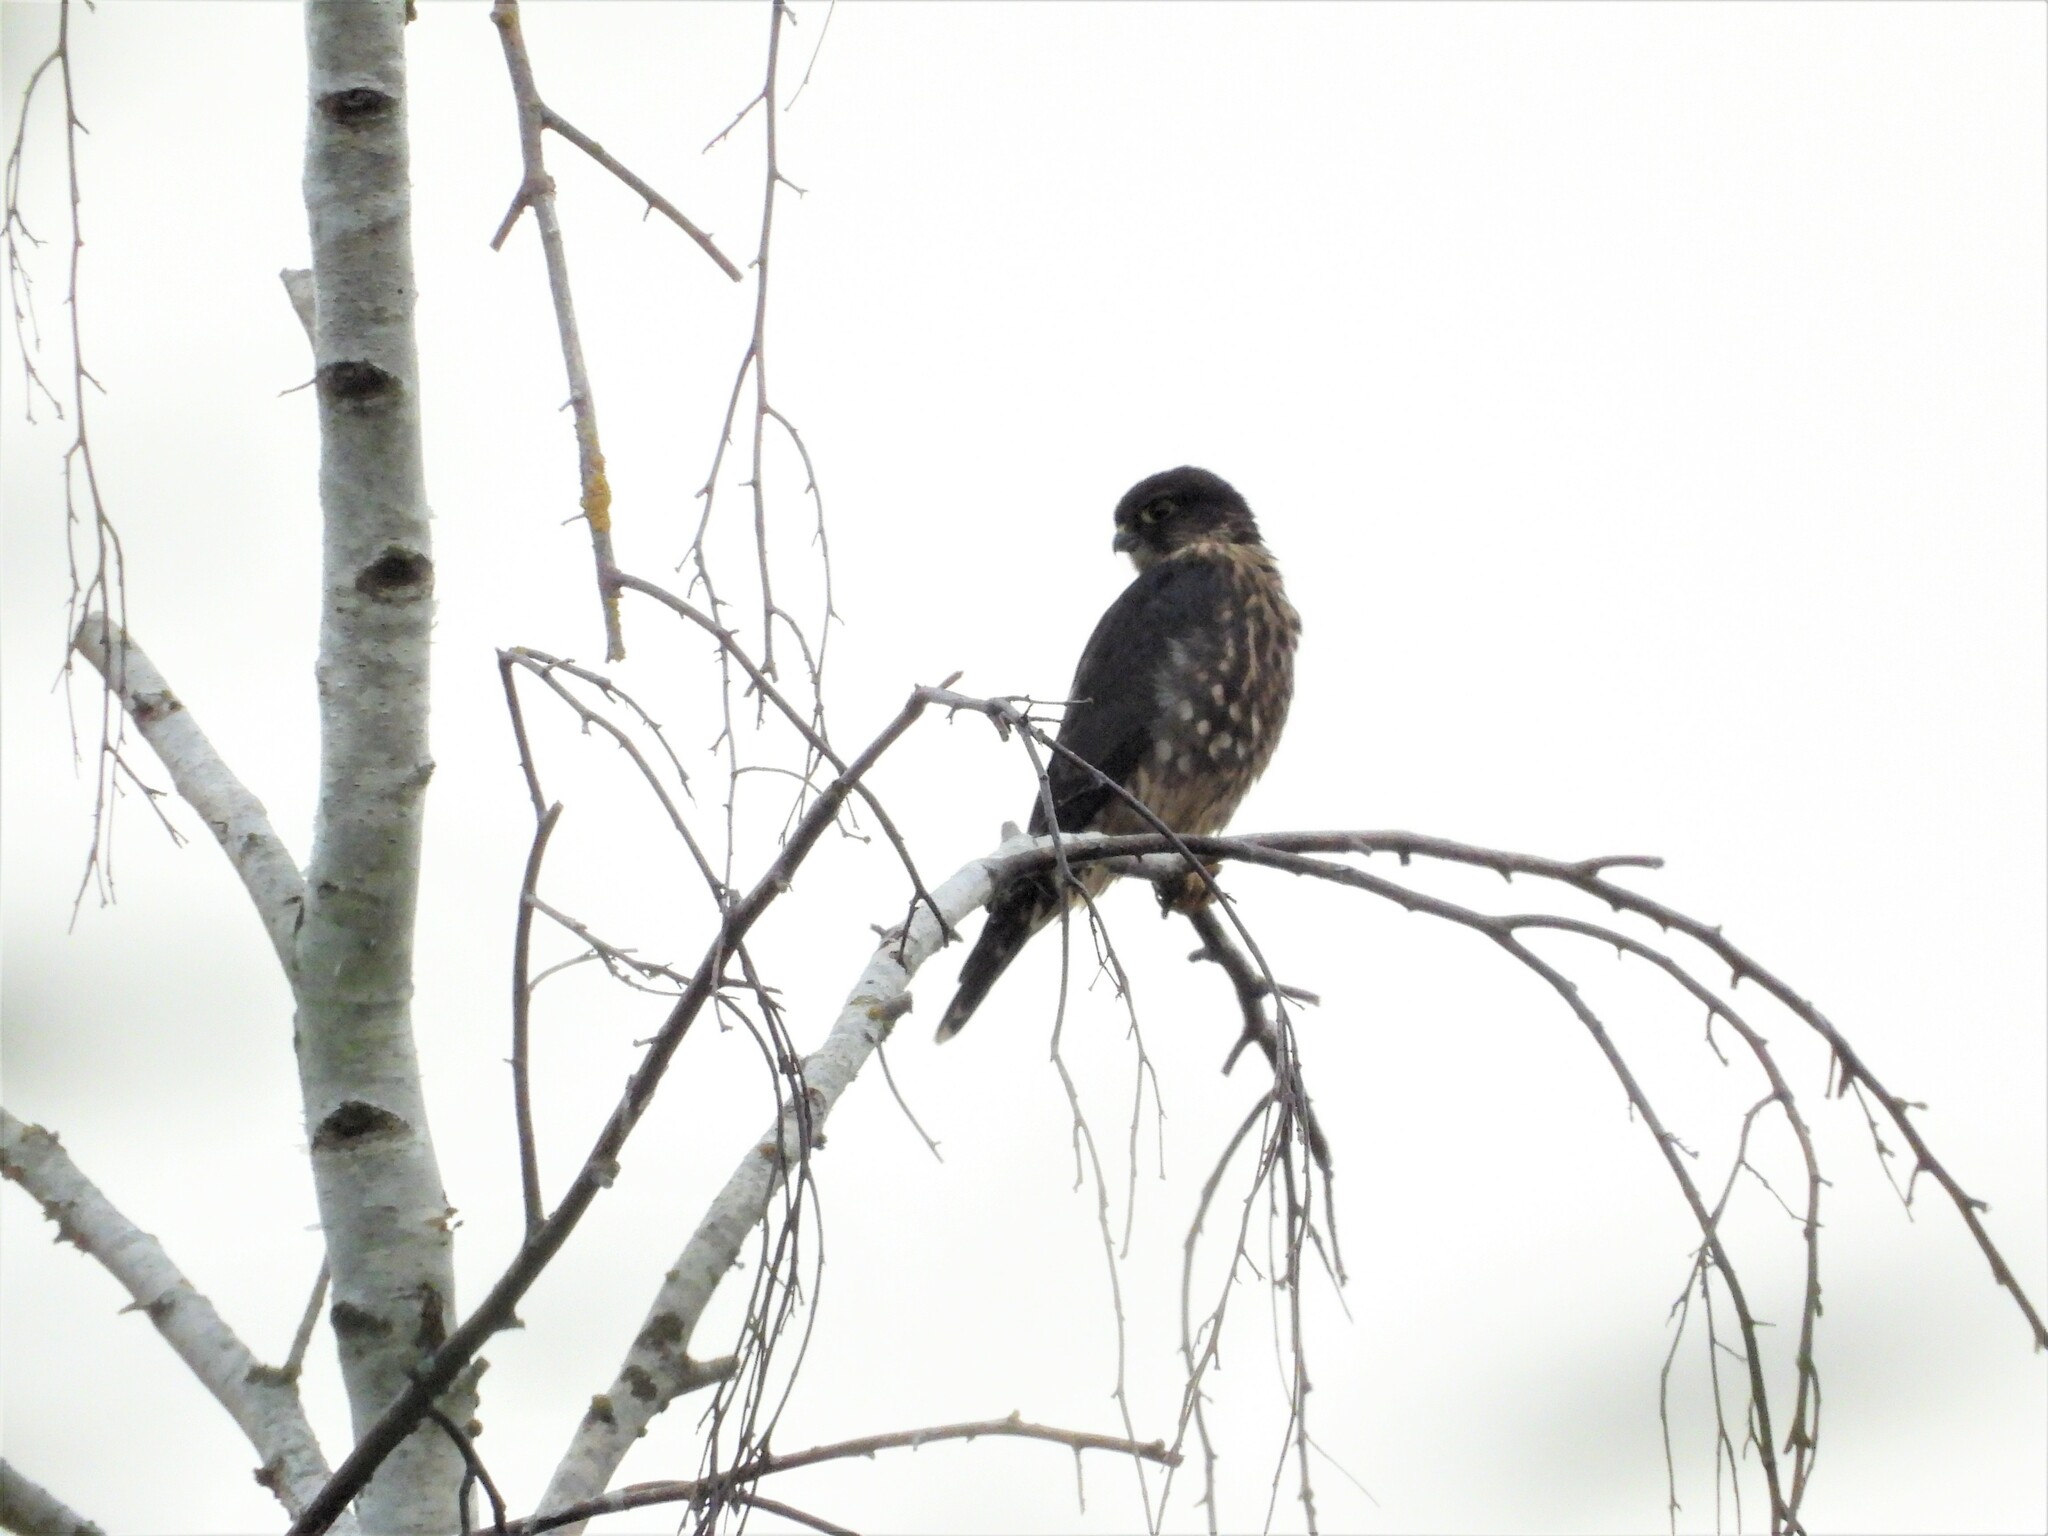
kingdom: Animalia
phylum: Chordata
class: Aves
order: Falconiformes
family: Falconidae
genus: Falco
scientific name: Falco columbarius
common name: Merlin
